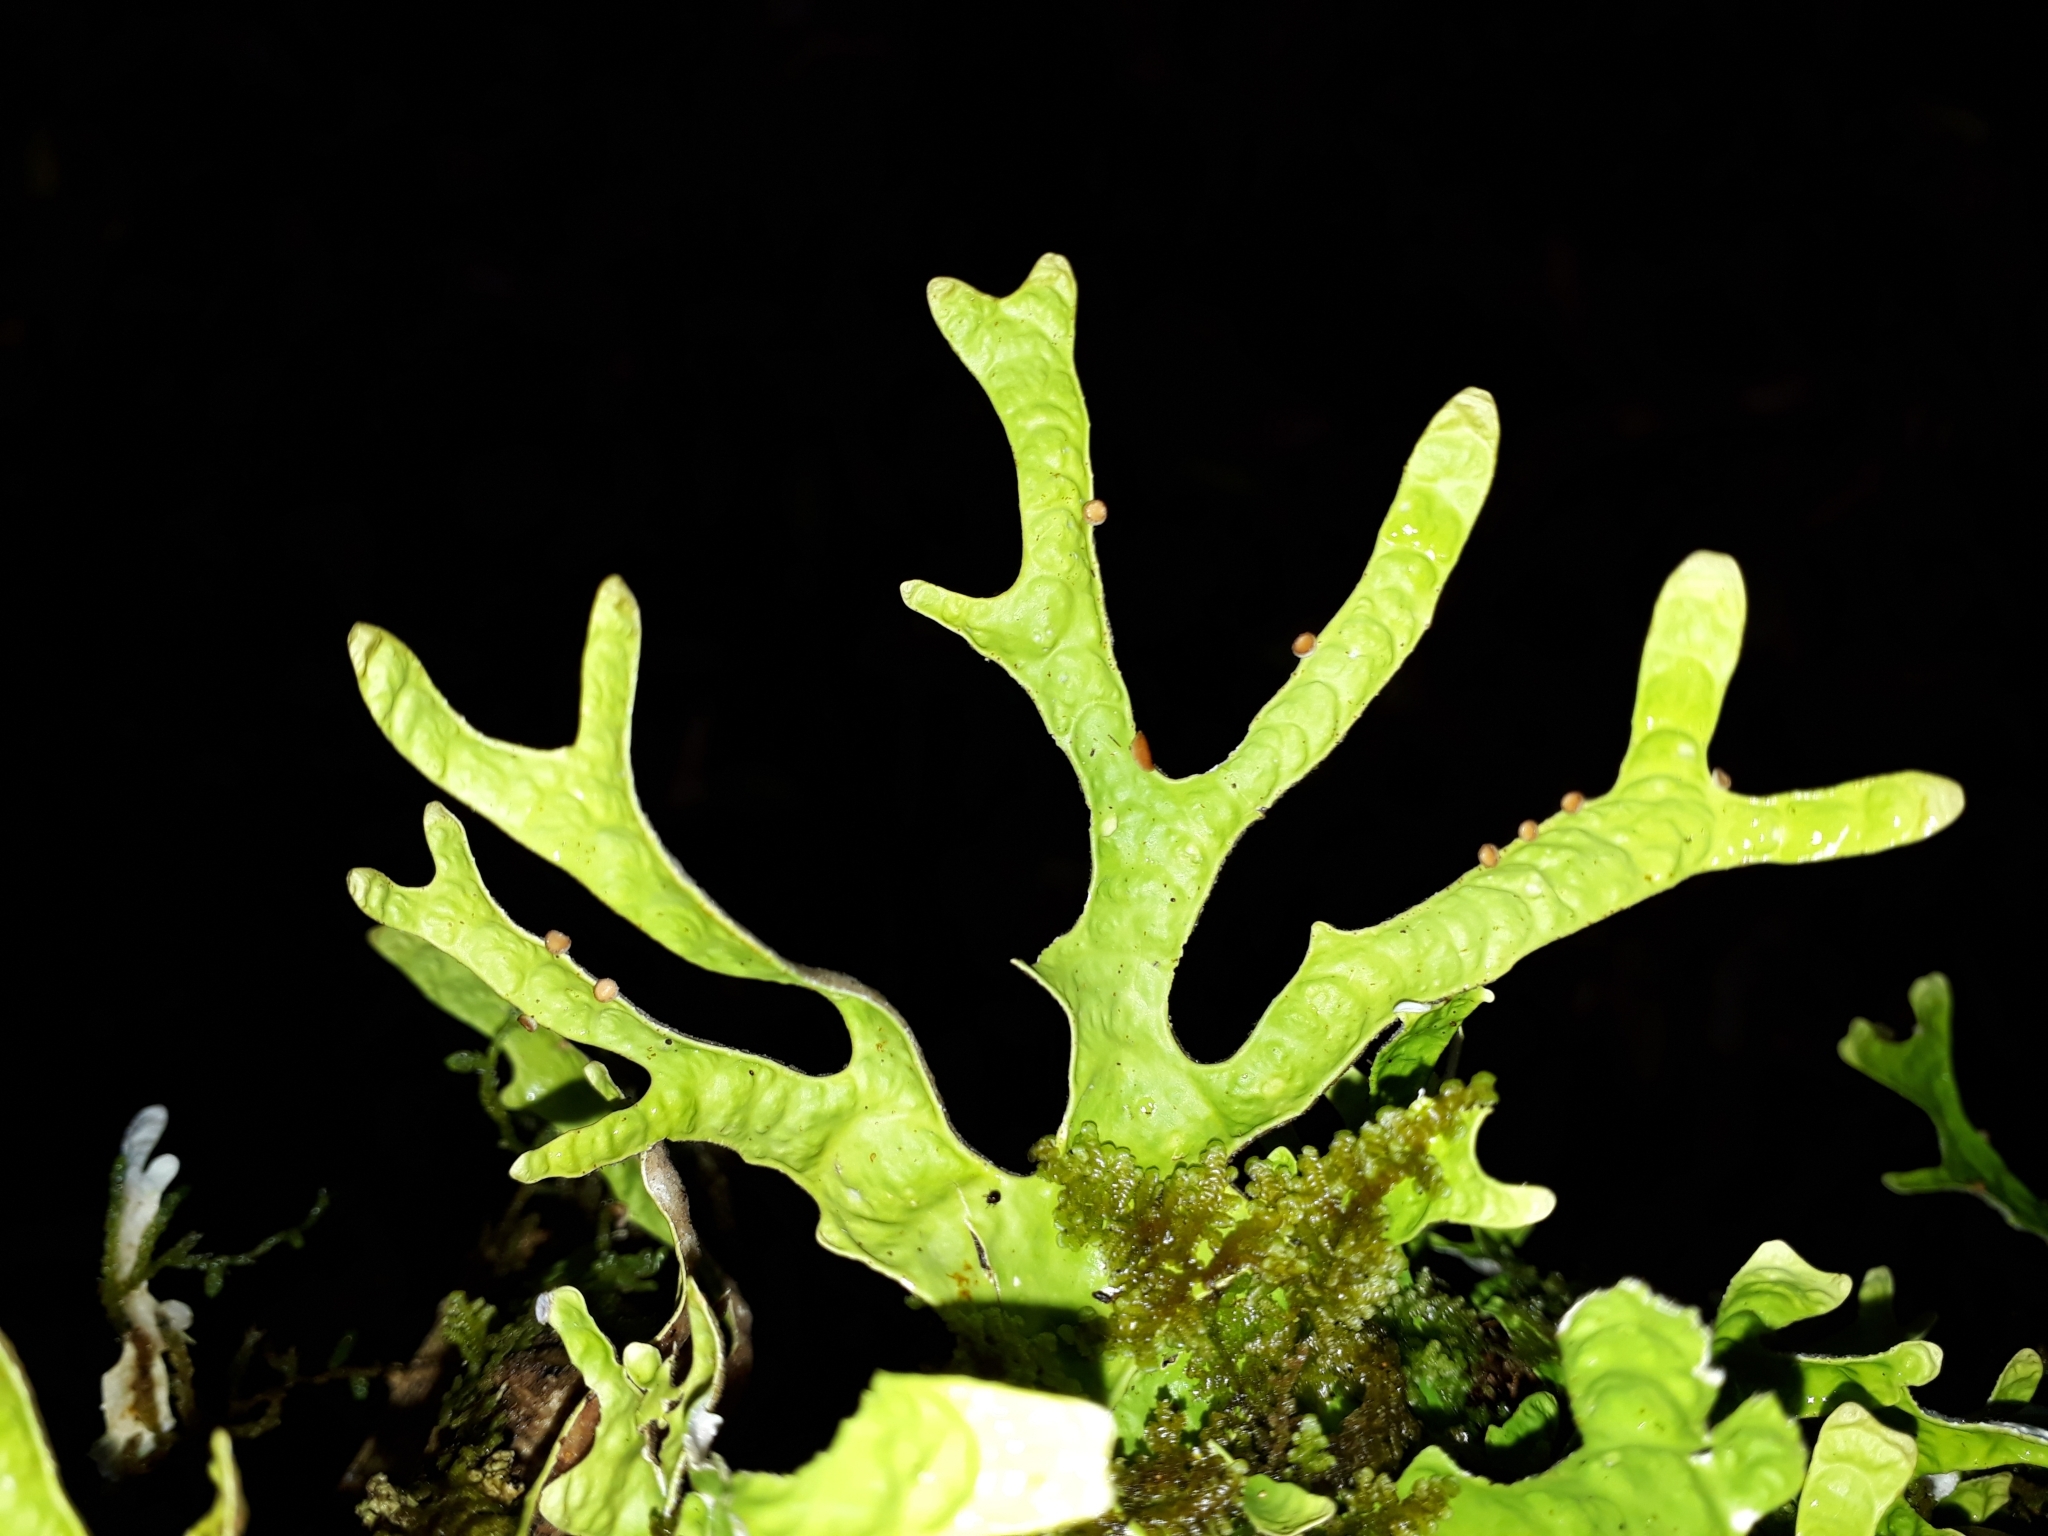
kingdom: Fungi
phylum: Ascomycota
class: Lecanoromycetes
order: Peltigerales
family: Lobariaceae
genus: Pseudocyphellaria
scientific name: Pseudocyphellaria rufovirescens
